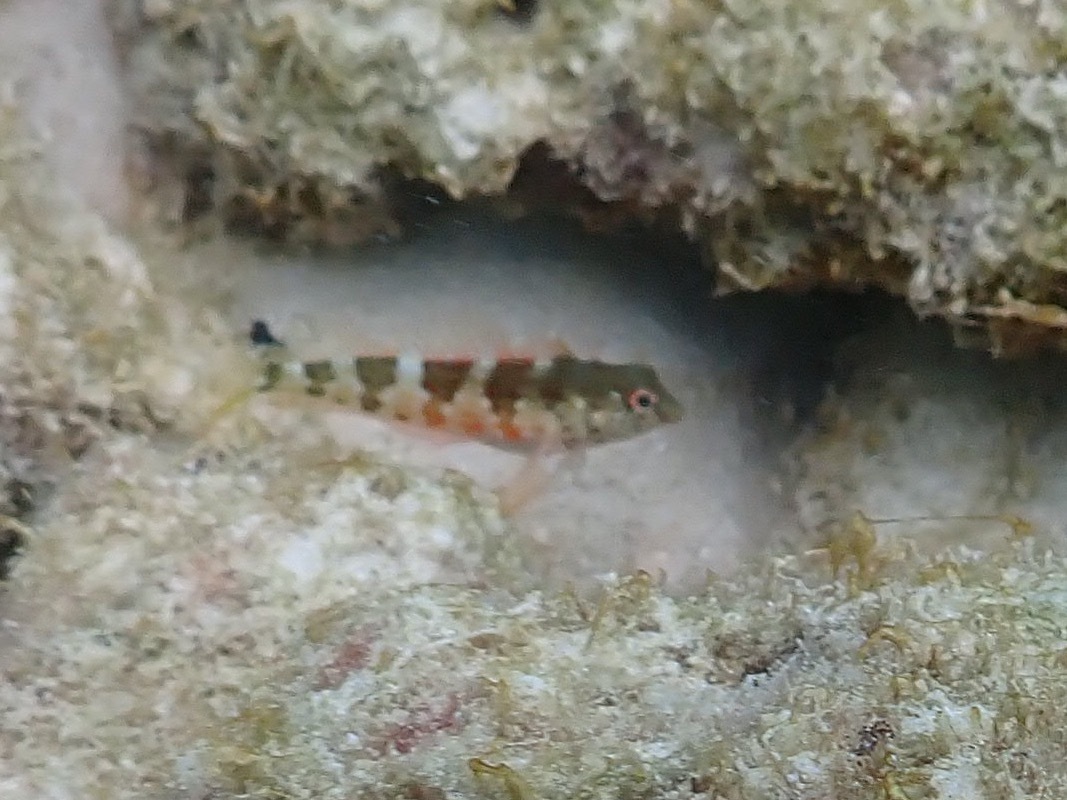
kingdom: Animalia
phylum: Chordata
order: Perciformes
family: Labrisomidae
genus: Malacoctenus
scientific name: Malacoctenus triangulatus
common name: Saddled blenny
